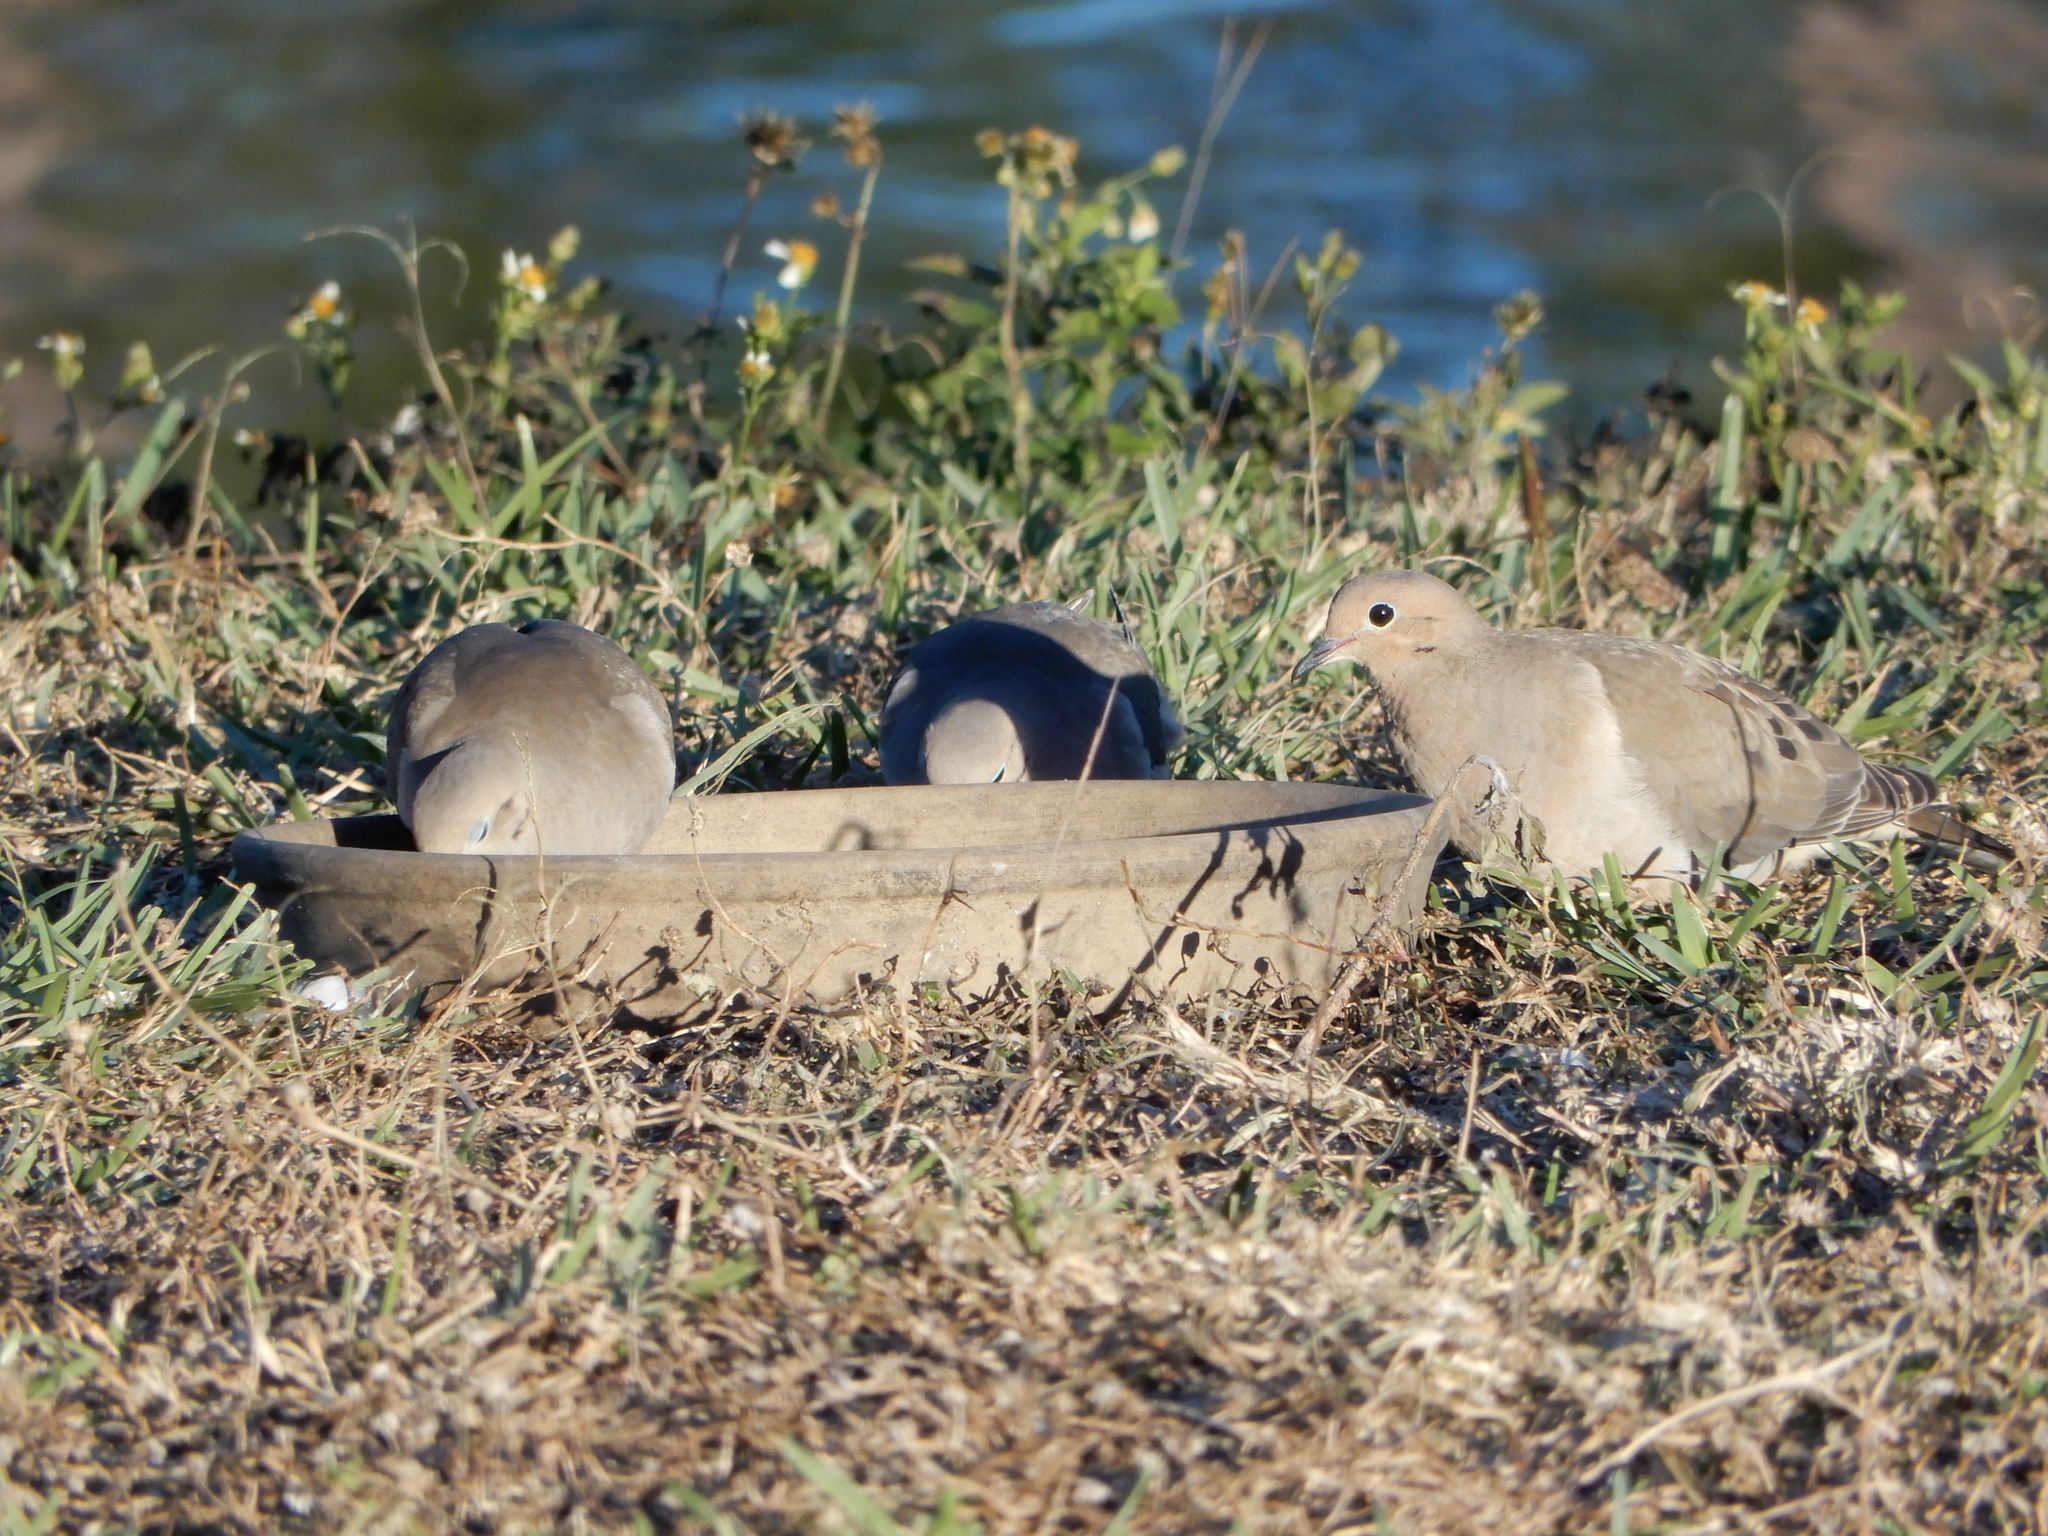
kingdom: Animalia
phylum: Chordata
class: Aves
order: Columbiformes
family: Columbidae
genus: Zenaida
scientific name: Zenaida macroura
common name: Mourning dove
